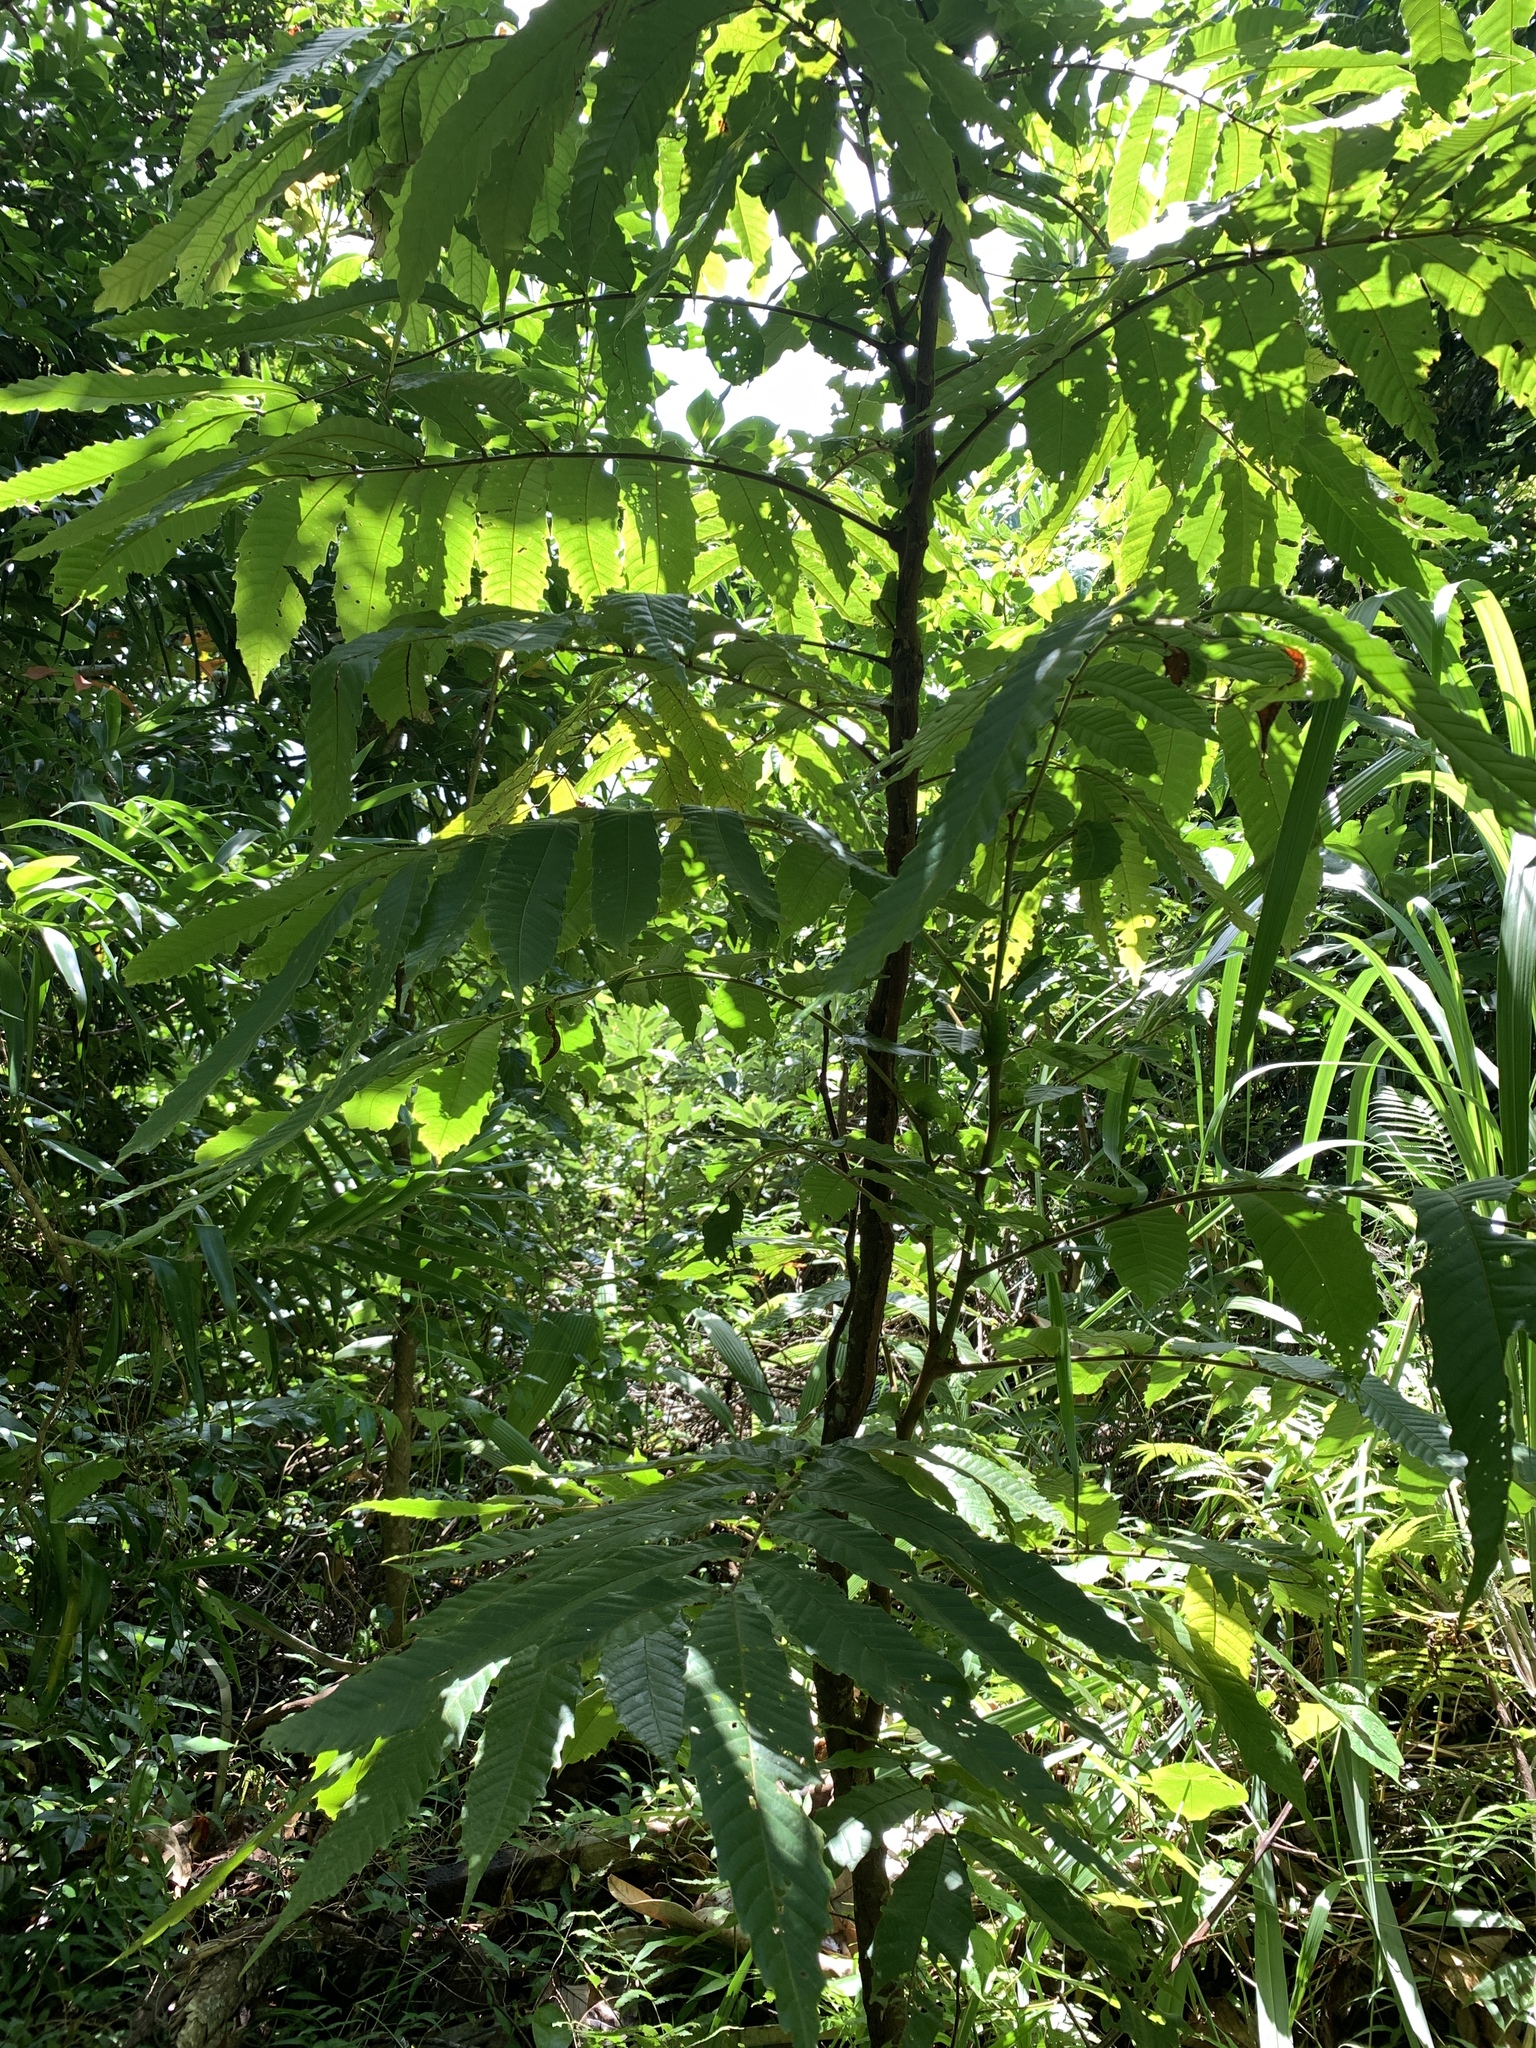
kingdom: Plantae
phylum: Tracheophyta
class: Magnoliopsida
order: Sapindales
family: Sapindaceae
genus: Pometia
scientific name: Pometia pinnata
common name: Oceanic lychee
